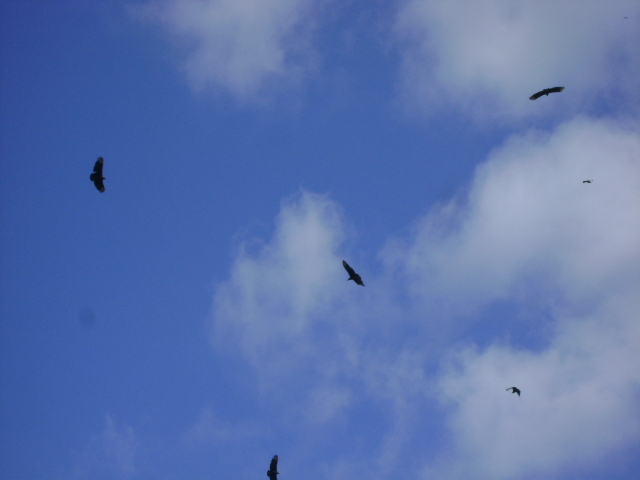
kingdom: Animalia
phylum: Chordata
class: Aves
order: Accipitriformes
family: Cathartidae
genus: Coragyps
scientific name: Coragyps atratus
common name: Black vulture
